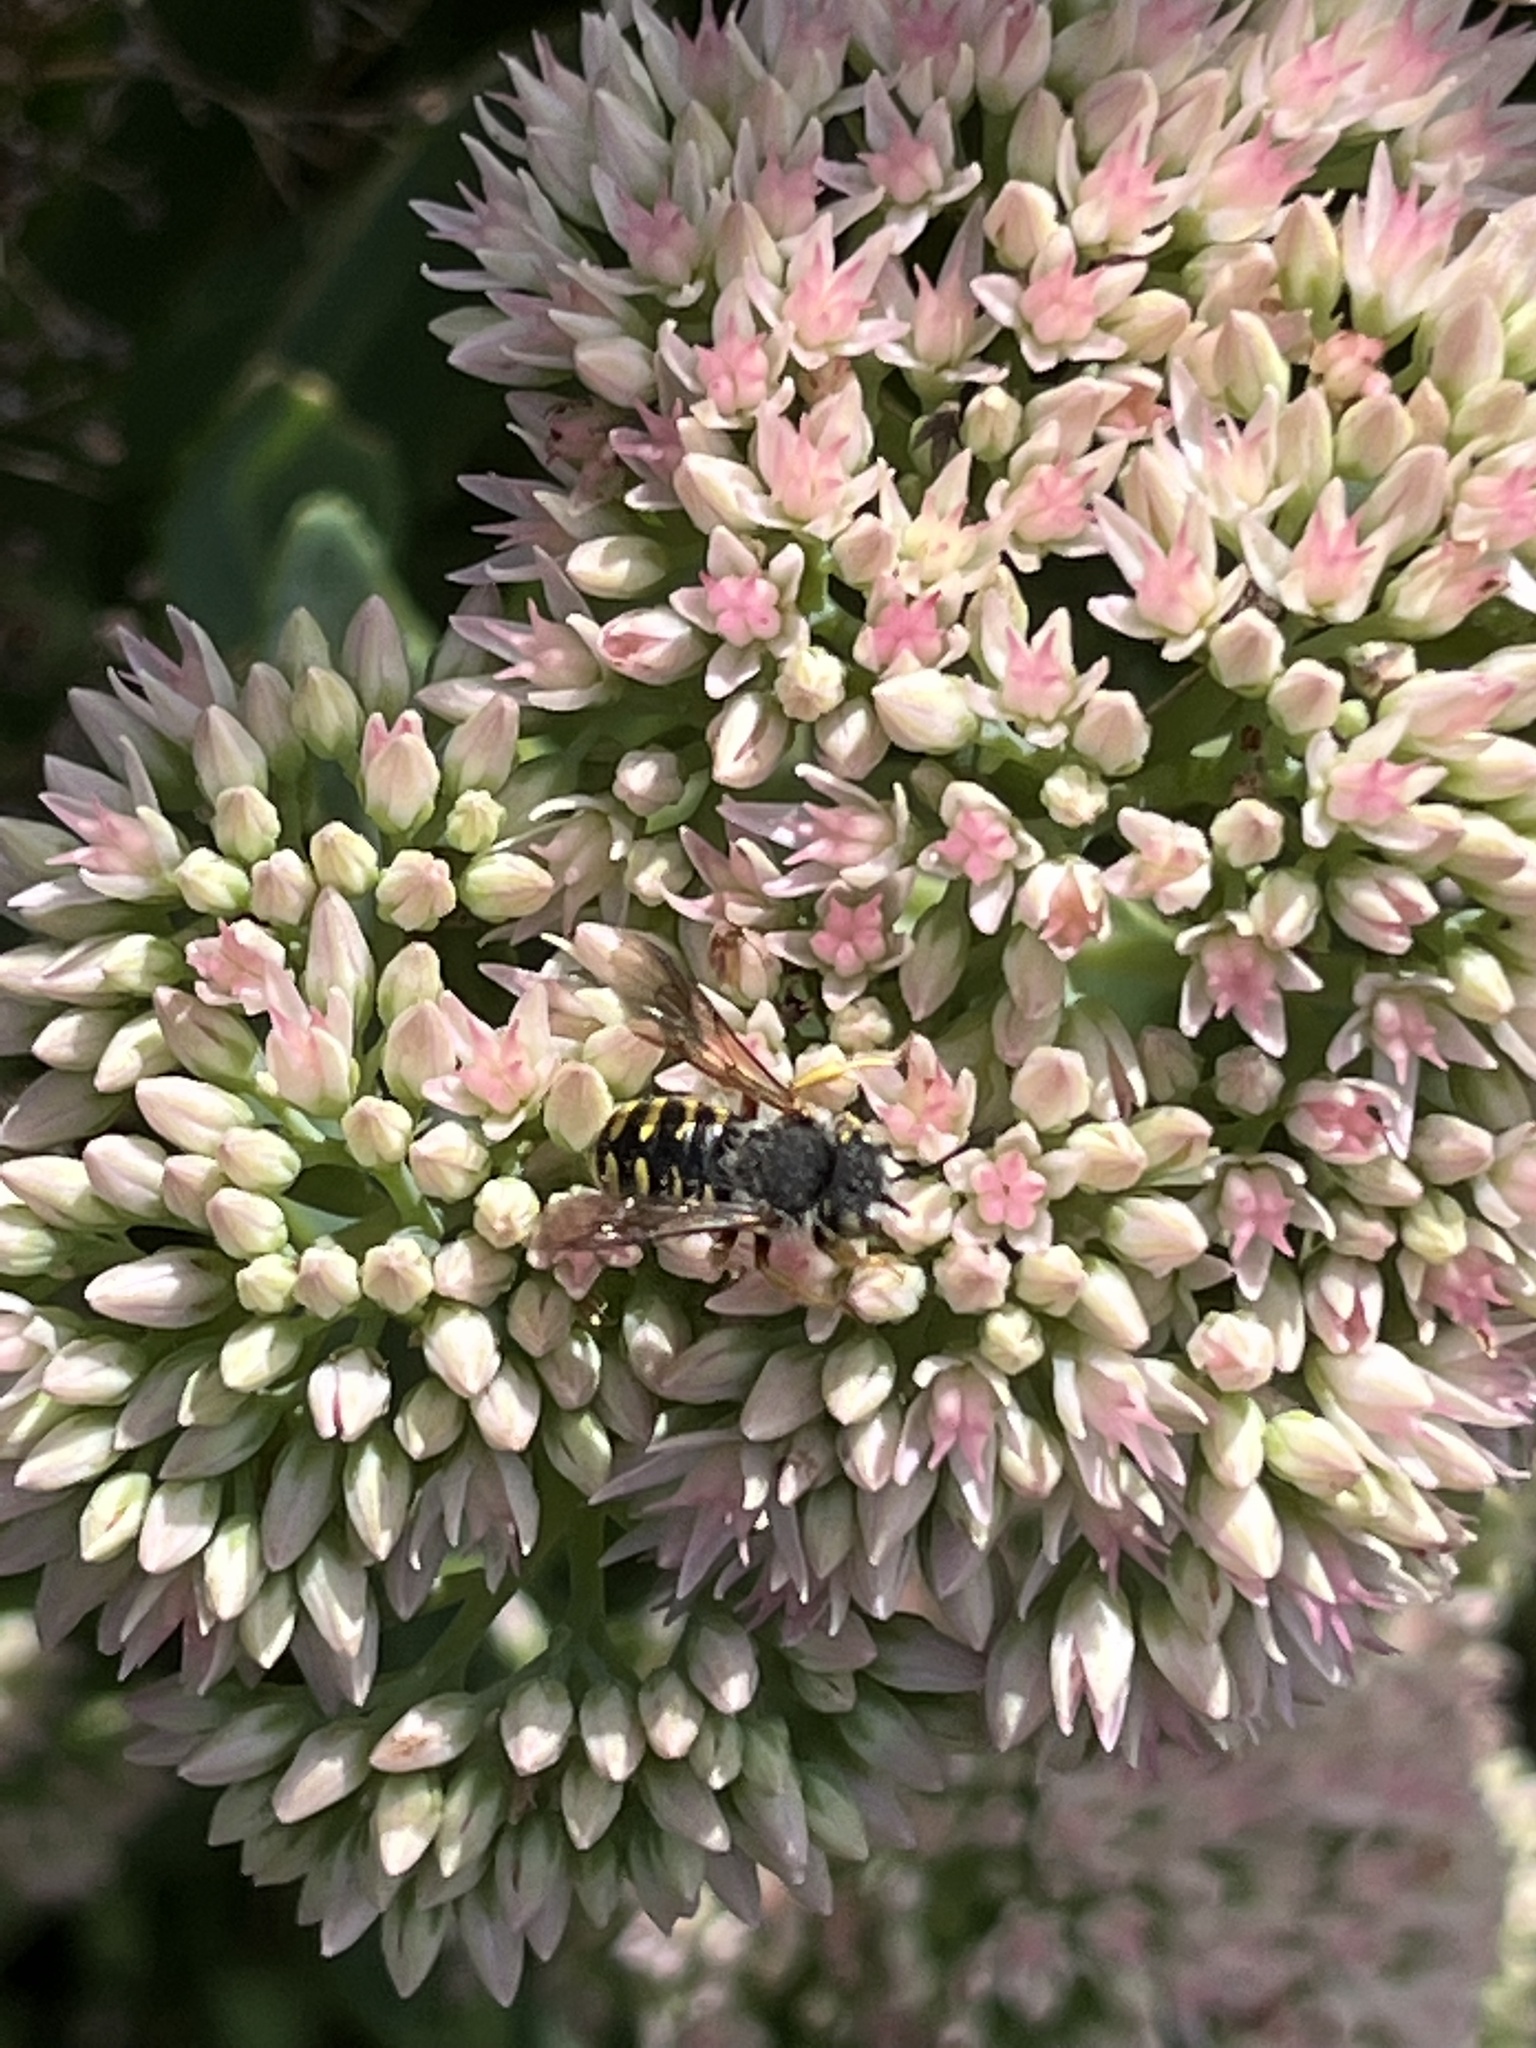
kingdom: Animalia
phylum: Arthropoda
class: Insecta
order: Hymenoptera
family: Megachilidae
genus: Anthidium
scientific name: Anthidium oblongatum
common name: Oblong wool carder bee
